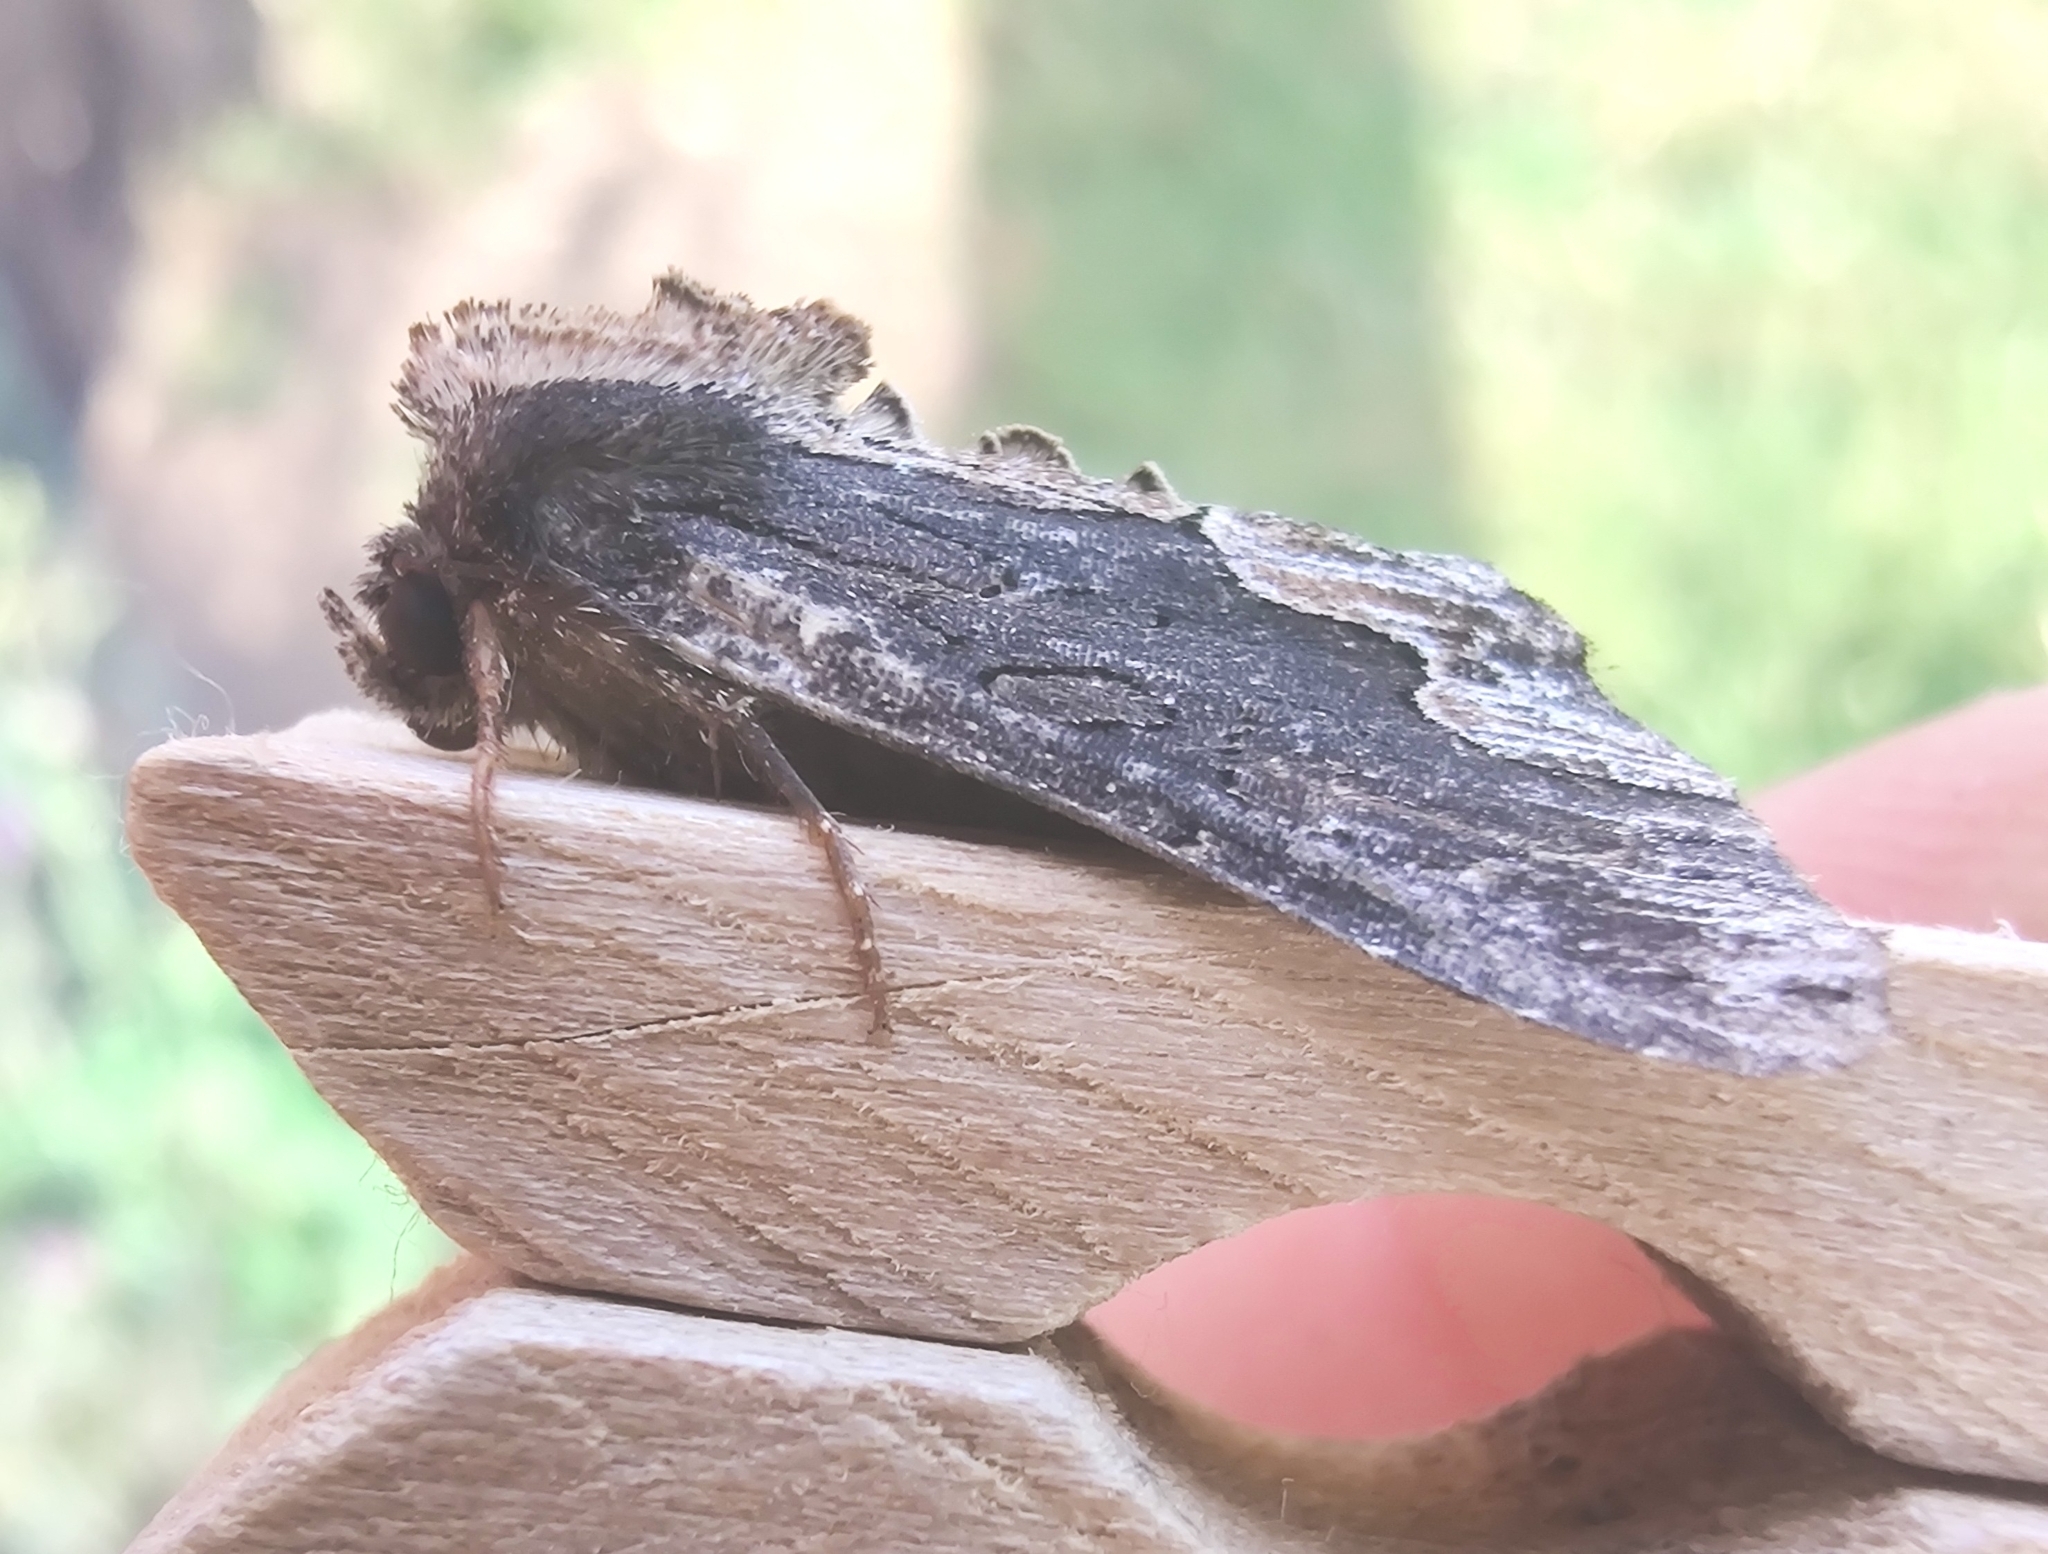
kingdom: Animalia
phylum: Arthropoda
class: Insecta
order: Lepidoptera
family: Noctuidae
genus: Dypterygia
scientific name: Dypterygia scabriuscula
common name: Bird's wing
